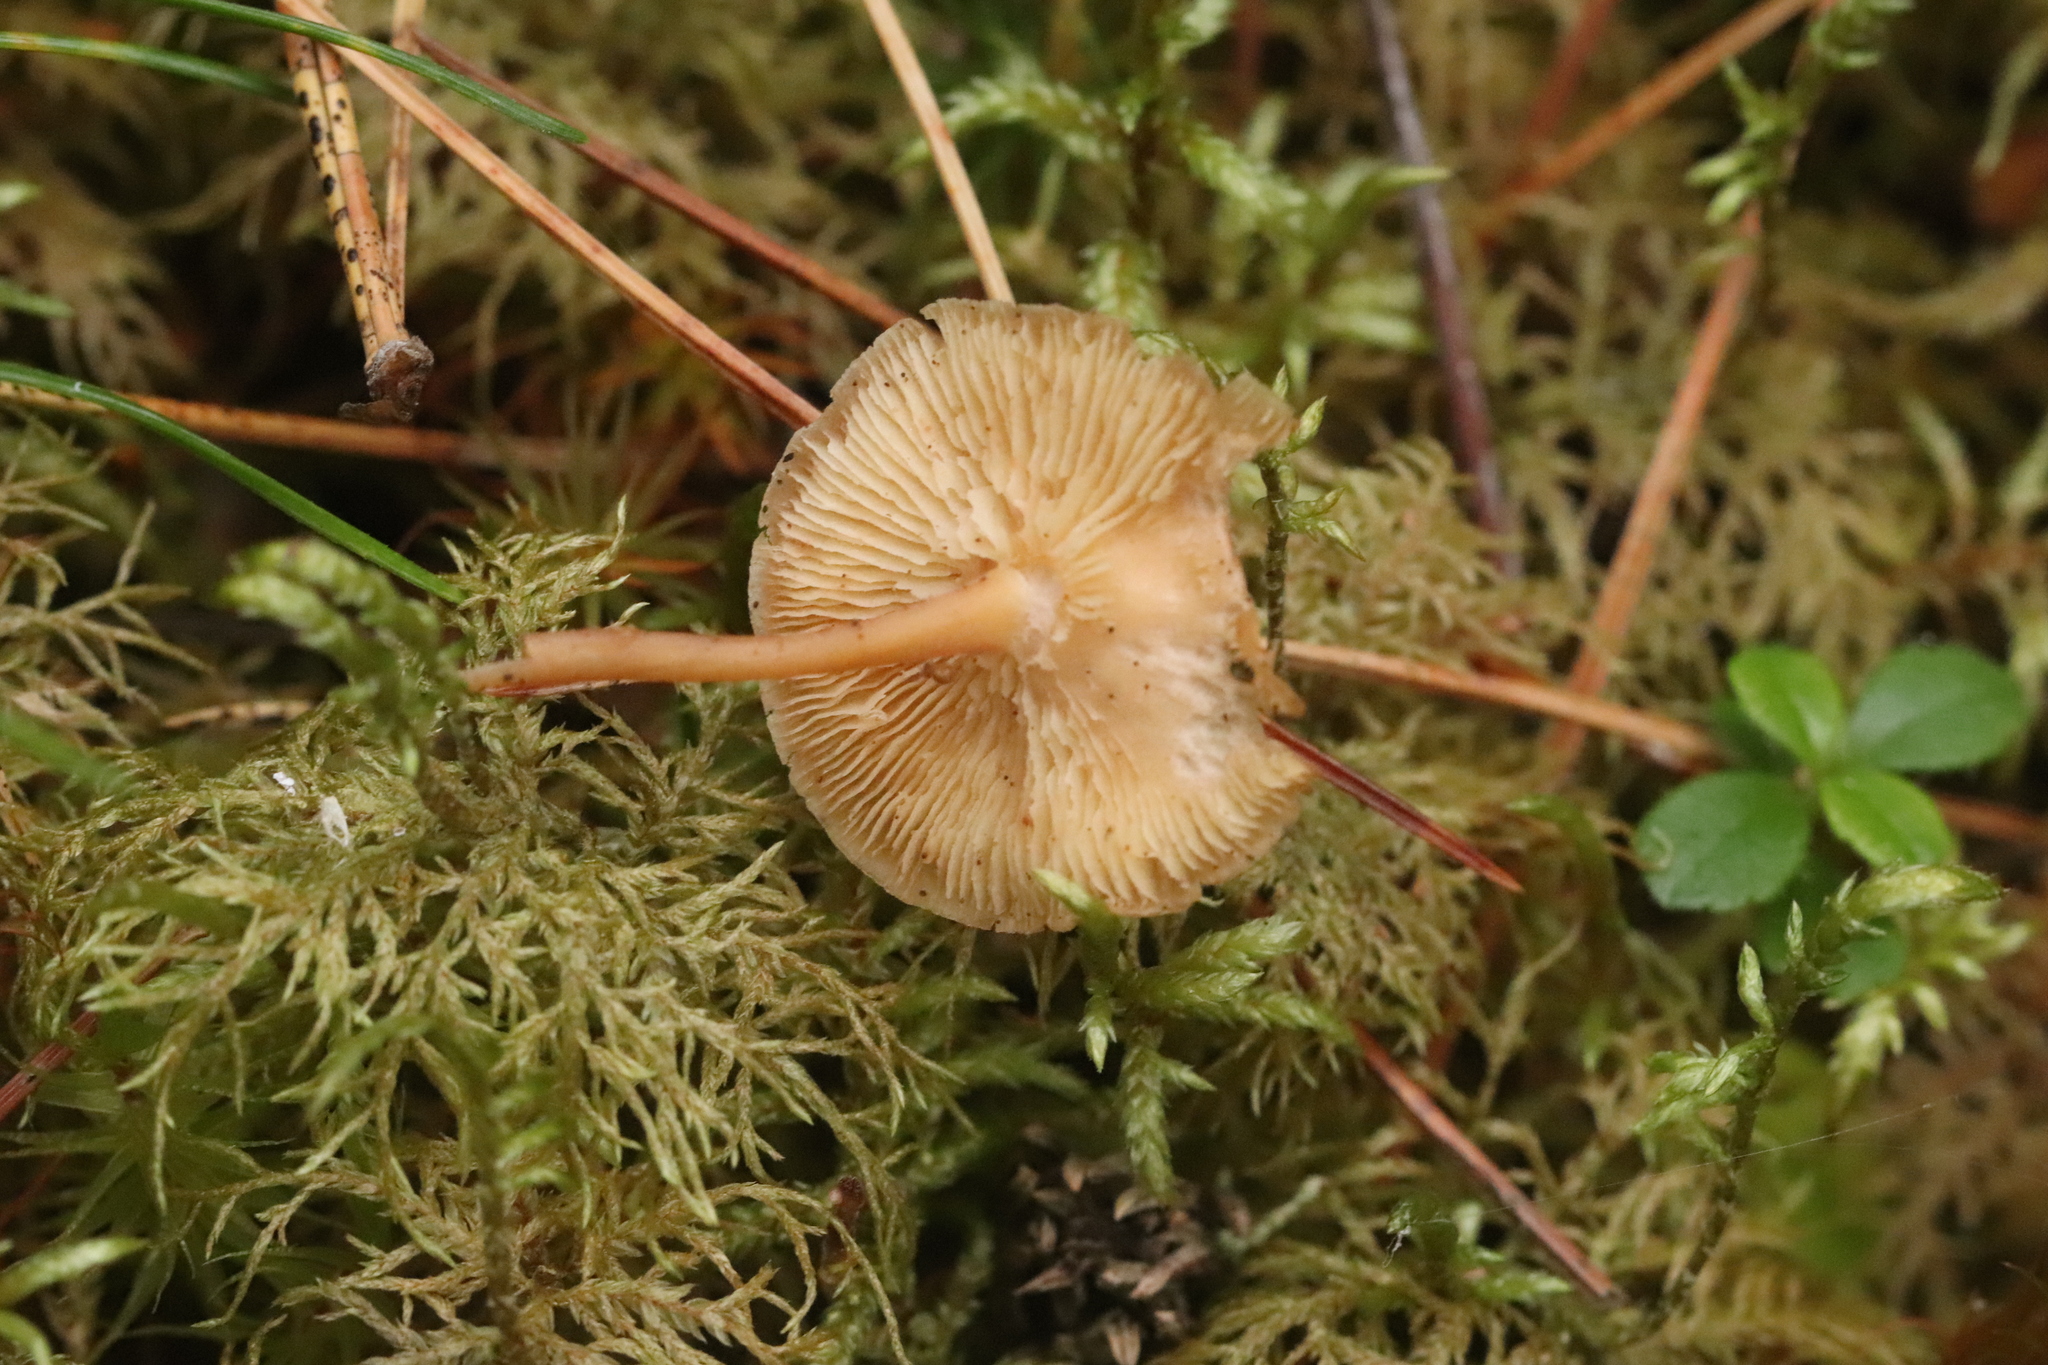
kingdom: Fungi
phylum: Basidiomycota
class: Agaricomycetes
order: Agaricales
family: Omphalotaceae
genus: Gymnopus
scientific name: Gymnopus dryophilus
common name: Penny top
